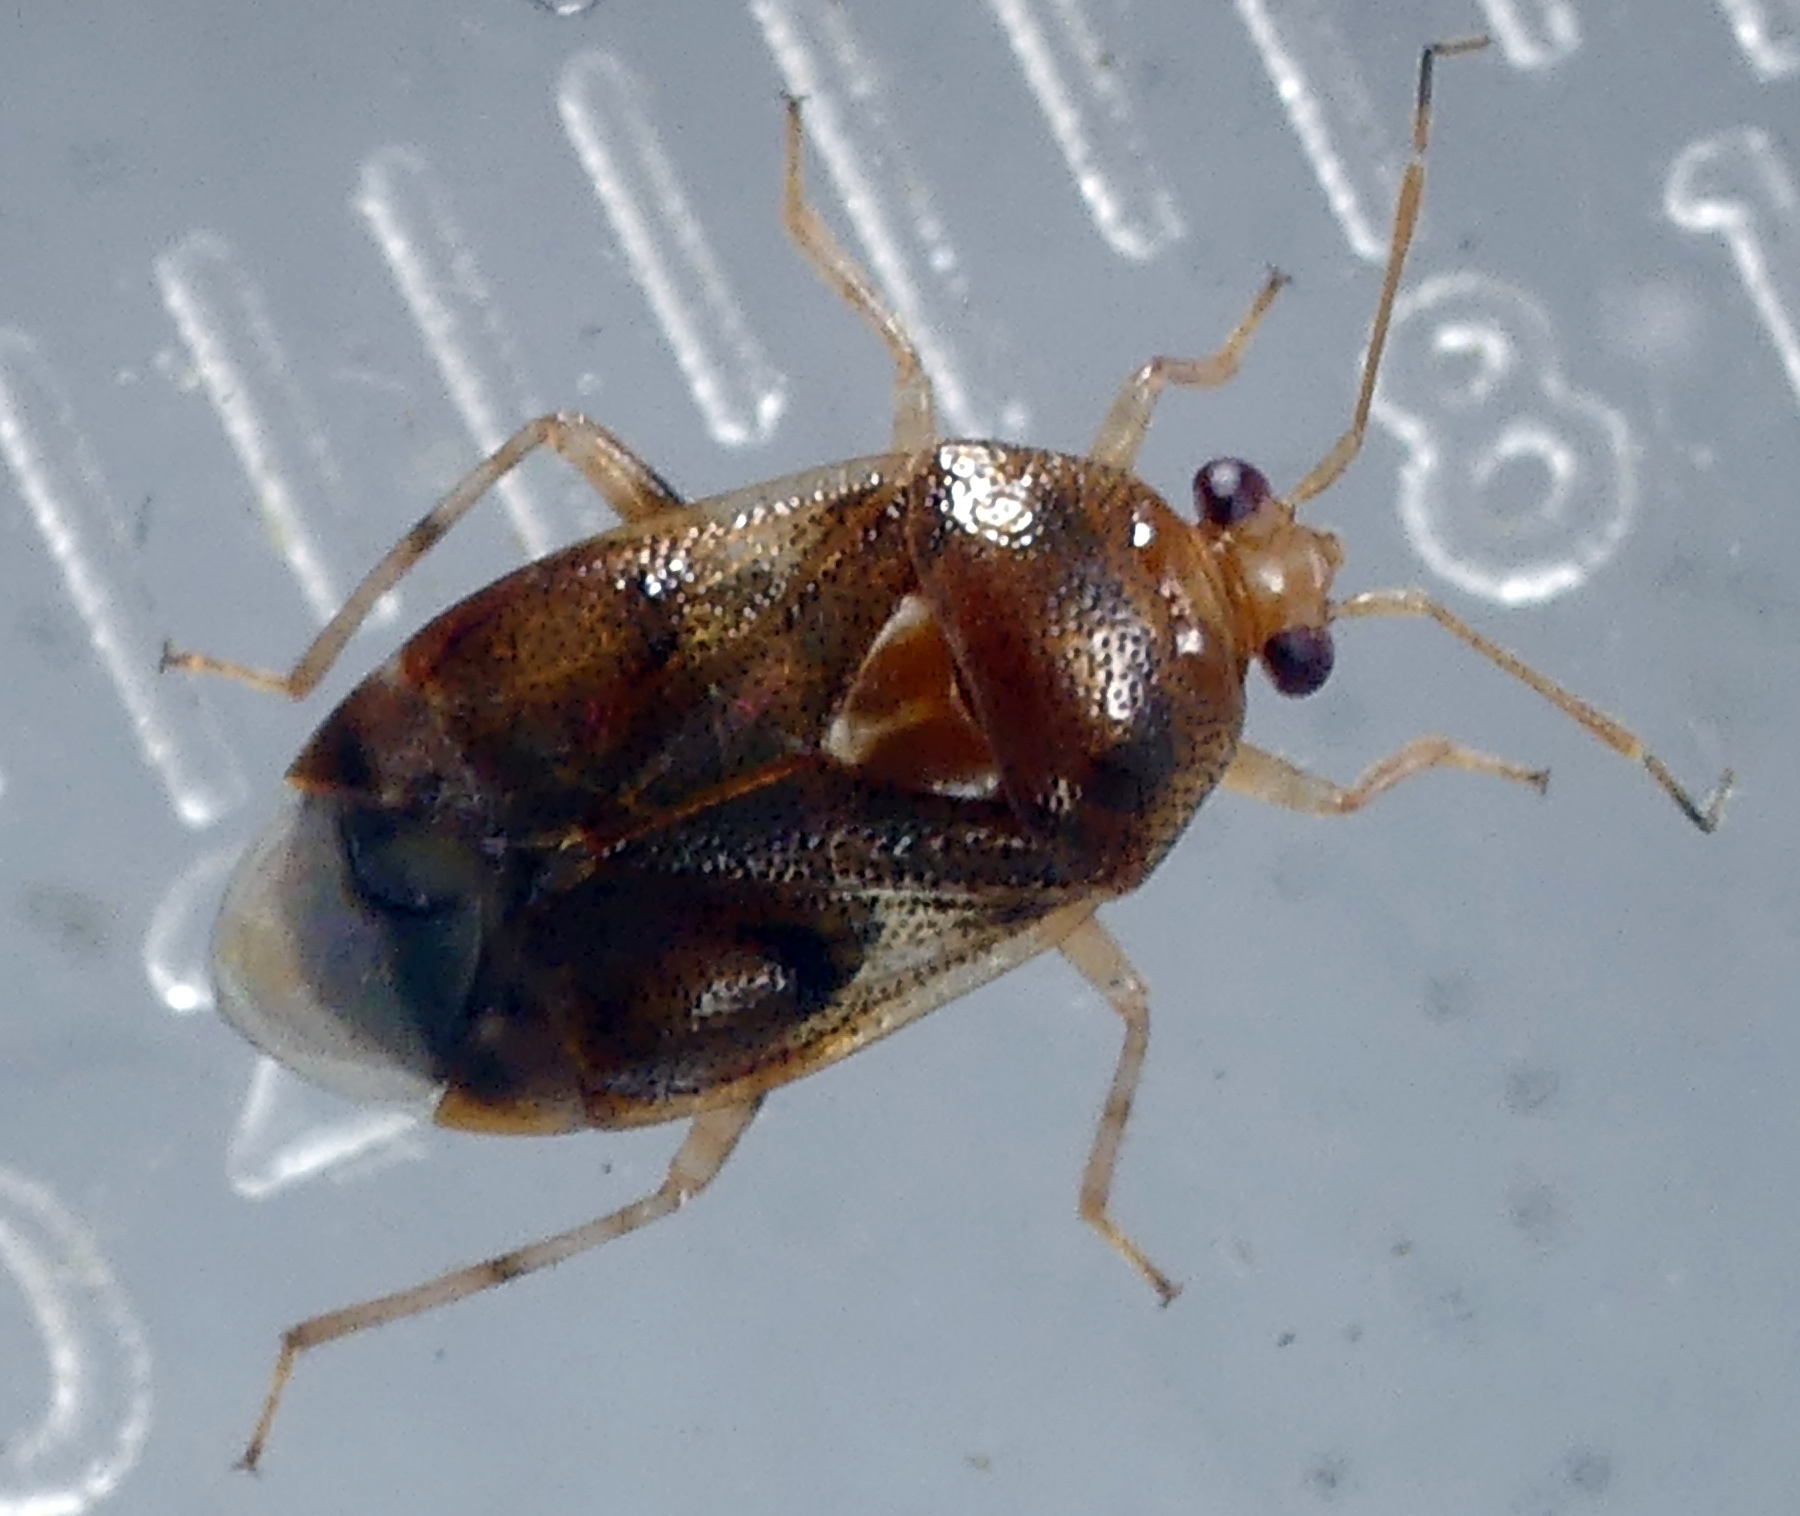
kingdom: Animalia
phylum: Arthropoda
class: Insecta
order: Hemiptera
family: Miridae
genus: Deraeocoris
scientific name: Deraeocoris lutescens
